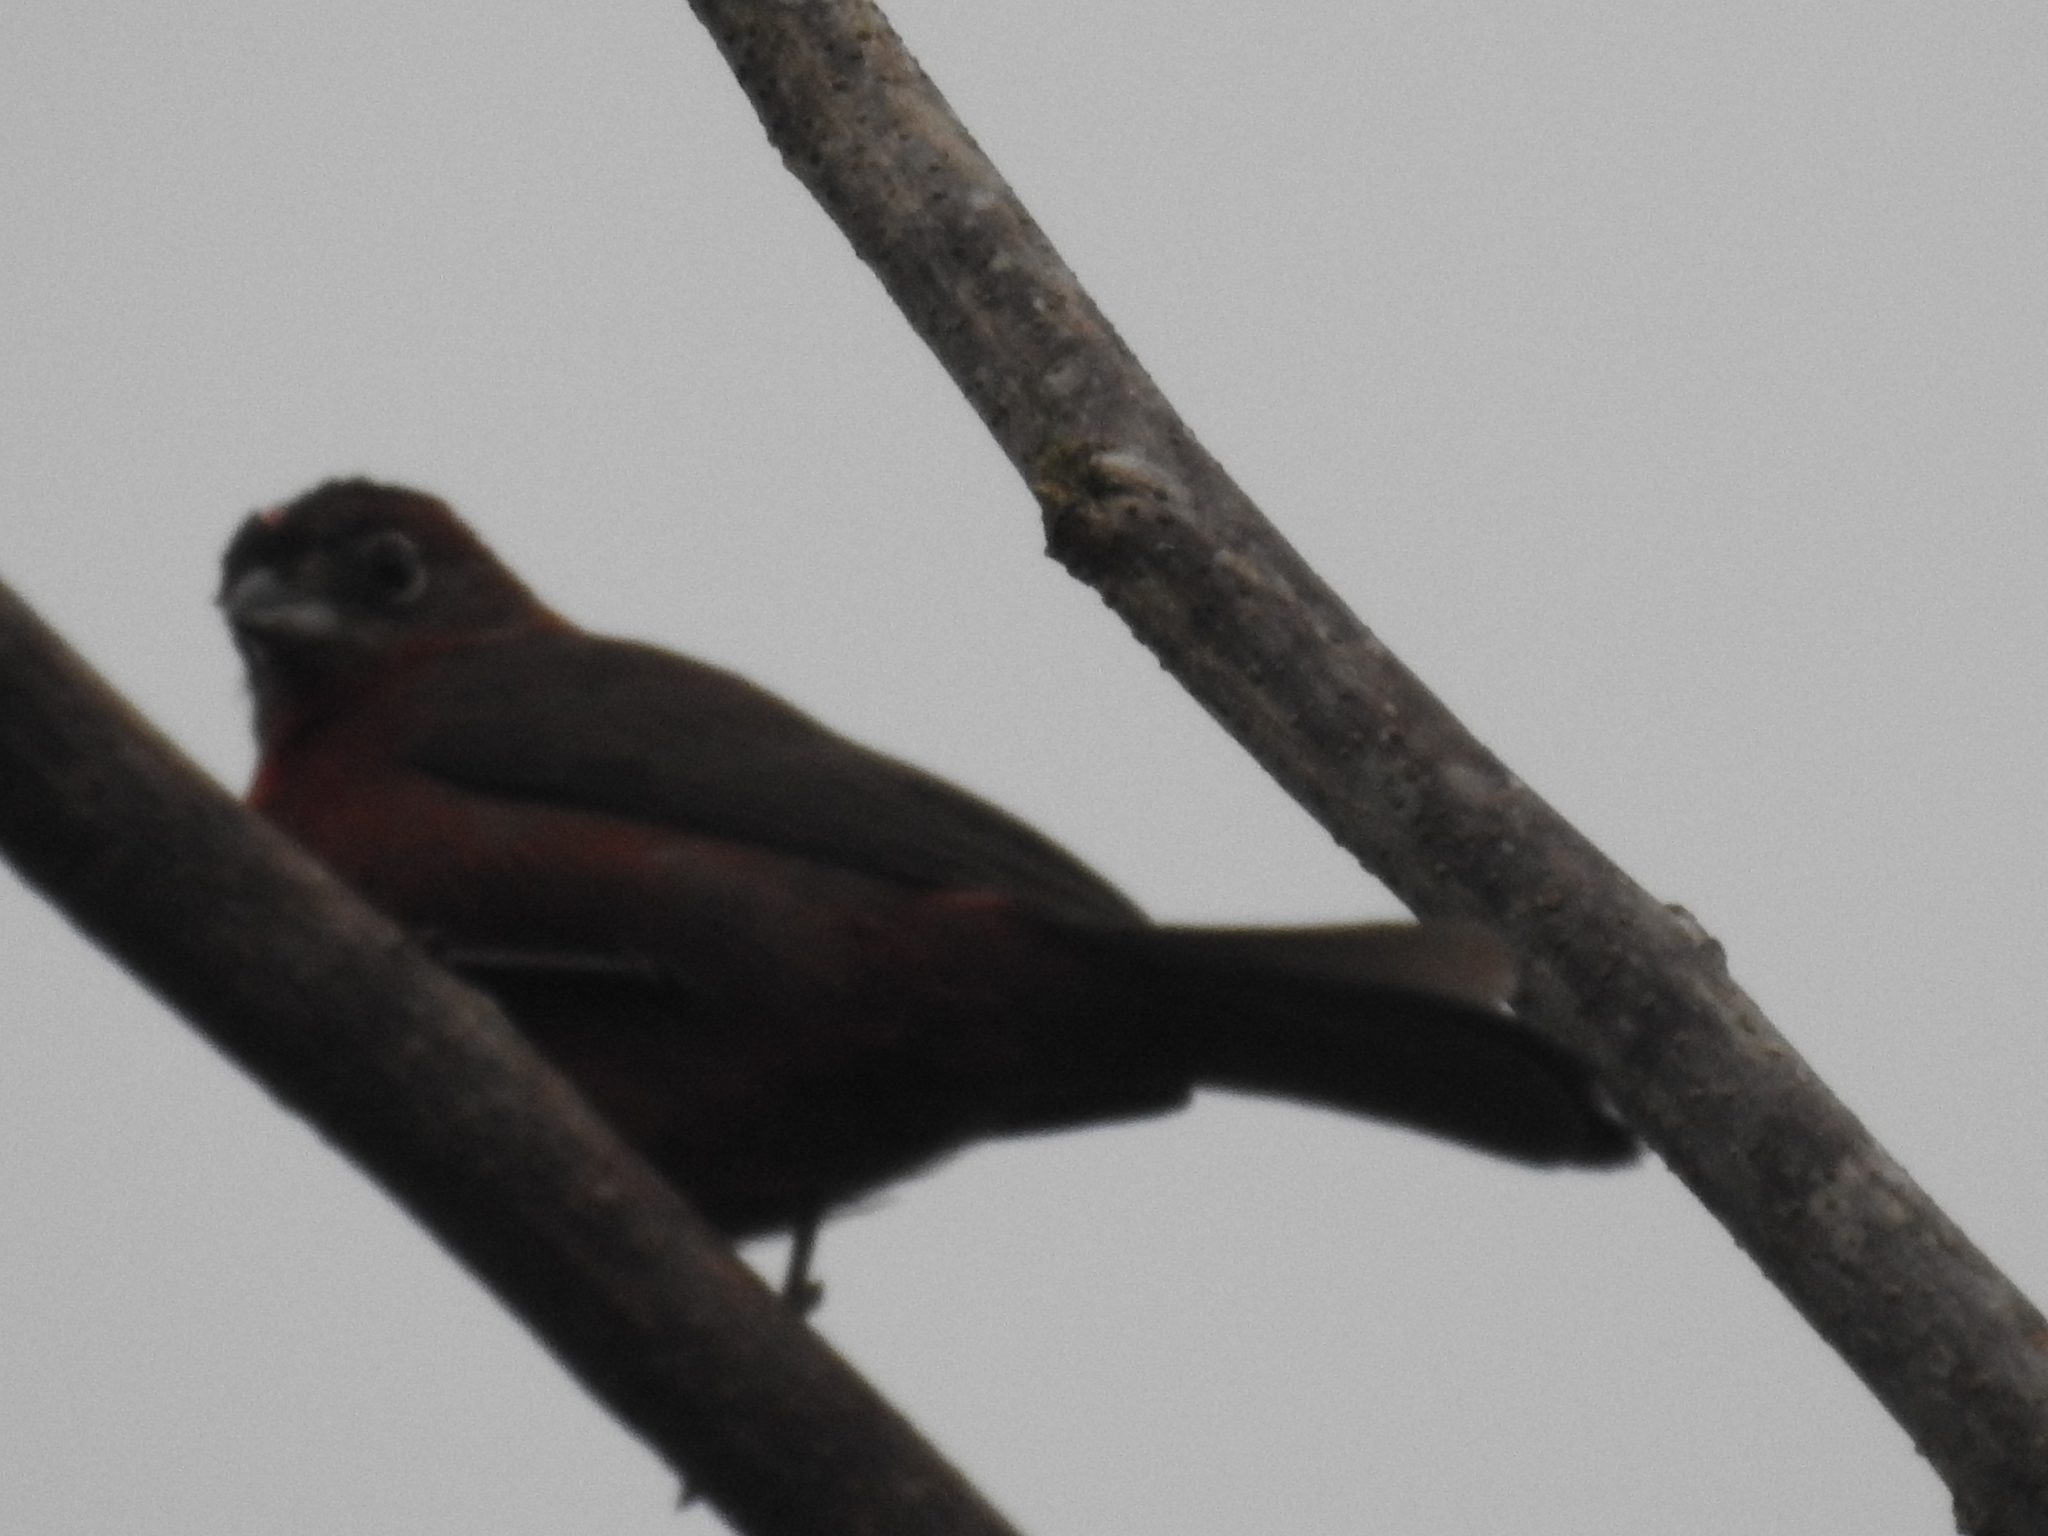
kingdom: Animalia
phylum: Chordata
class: Aves
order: Passeriformes
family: Thraupidae
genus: Coryphospingus
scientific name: Coryphospingus cucullatus
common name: Red pileated finch
